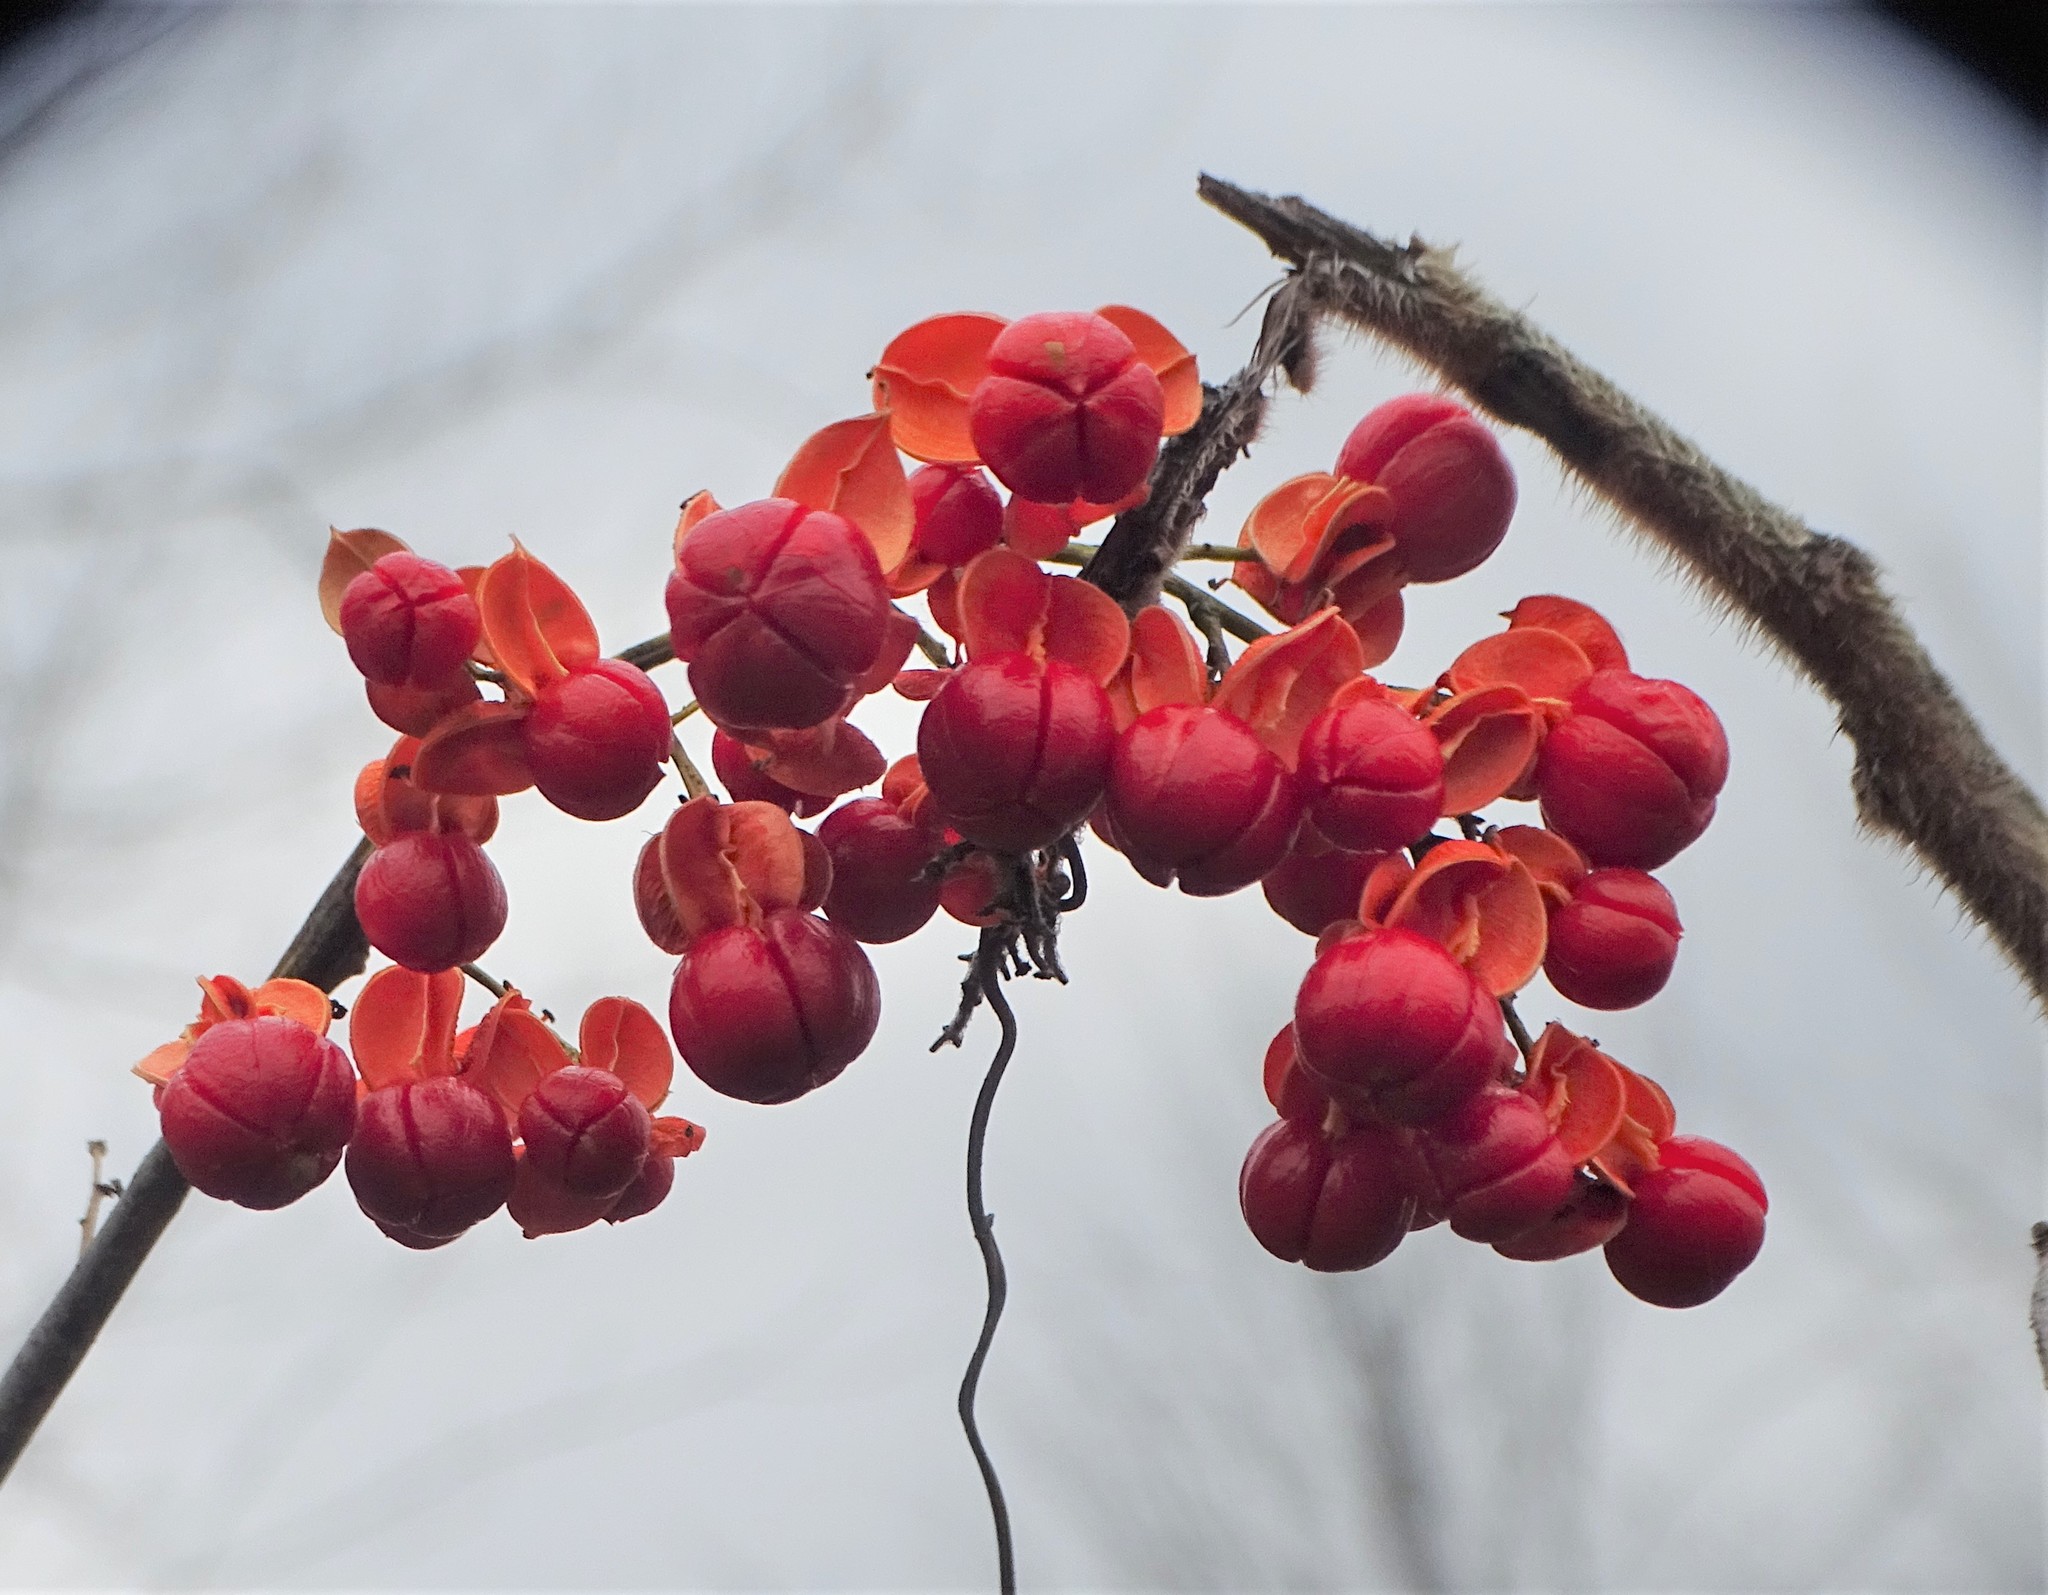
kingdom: Plantae
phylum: Tracheophyta
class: Magnoliopsida
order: Celastrales
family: Celastraceae
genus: Celastrus
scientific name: Celastrus scandens
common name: American bittersweet
